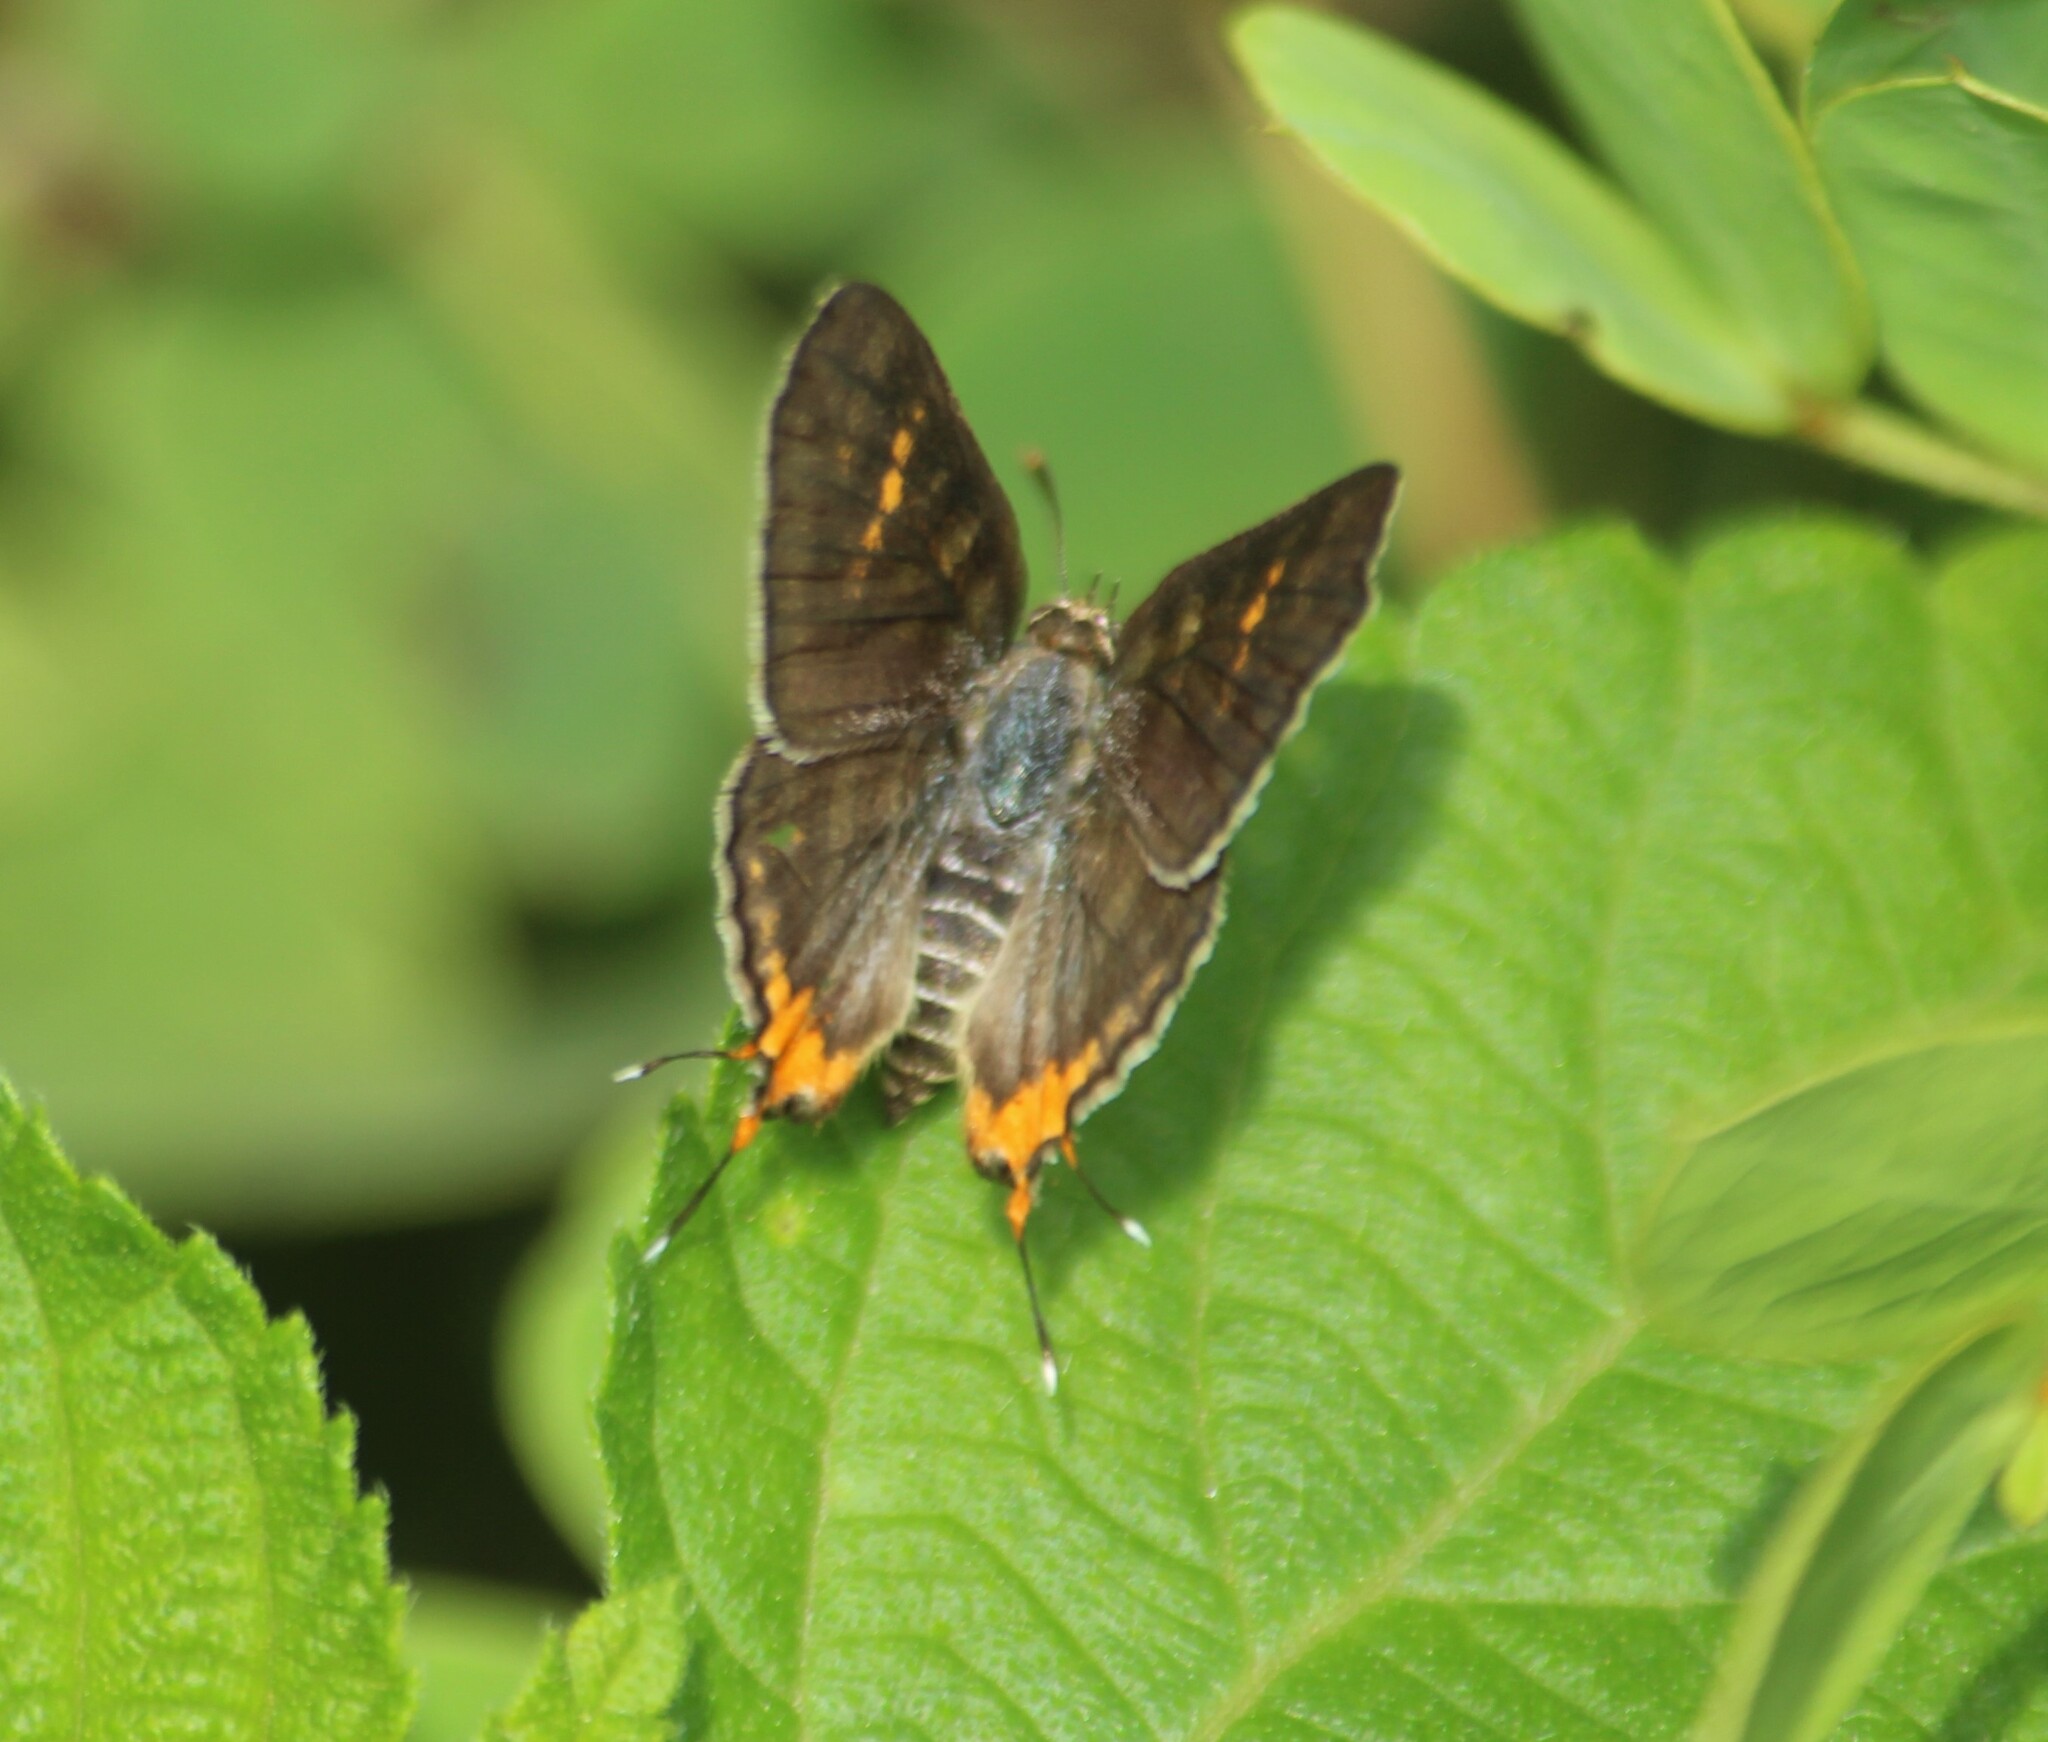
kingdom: Animalia
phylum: Arthropoda
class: Insecta
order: Lepidoptera
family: Lycaenidae
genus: Cigaritis
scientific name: Cigaritis vulcanus
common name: Common silverline
